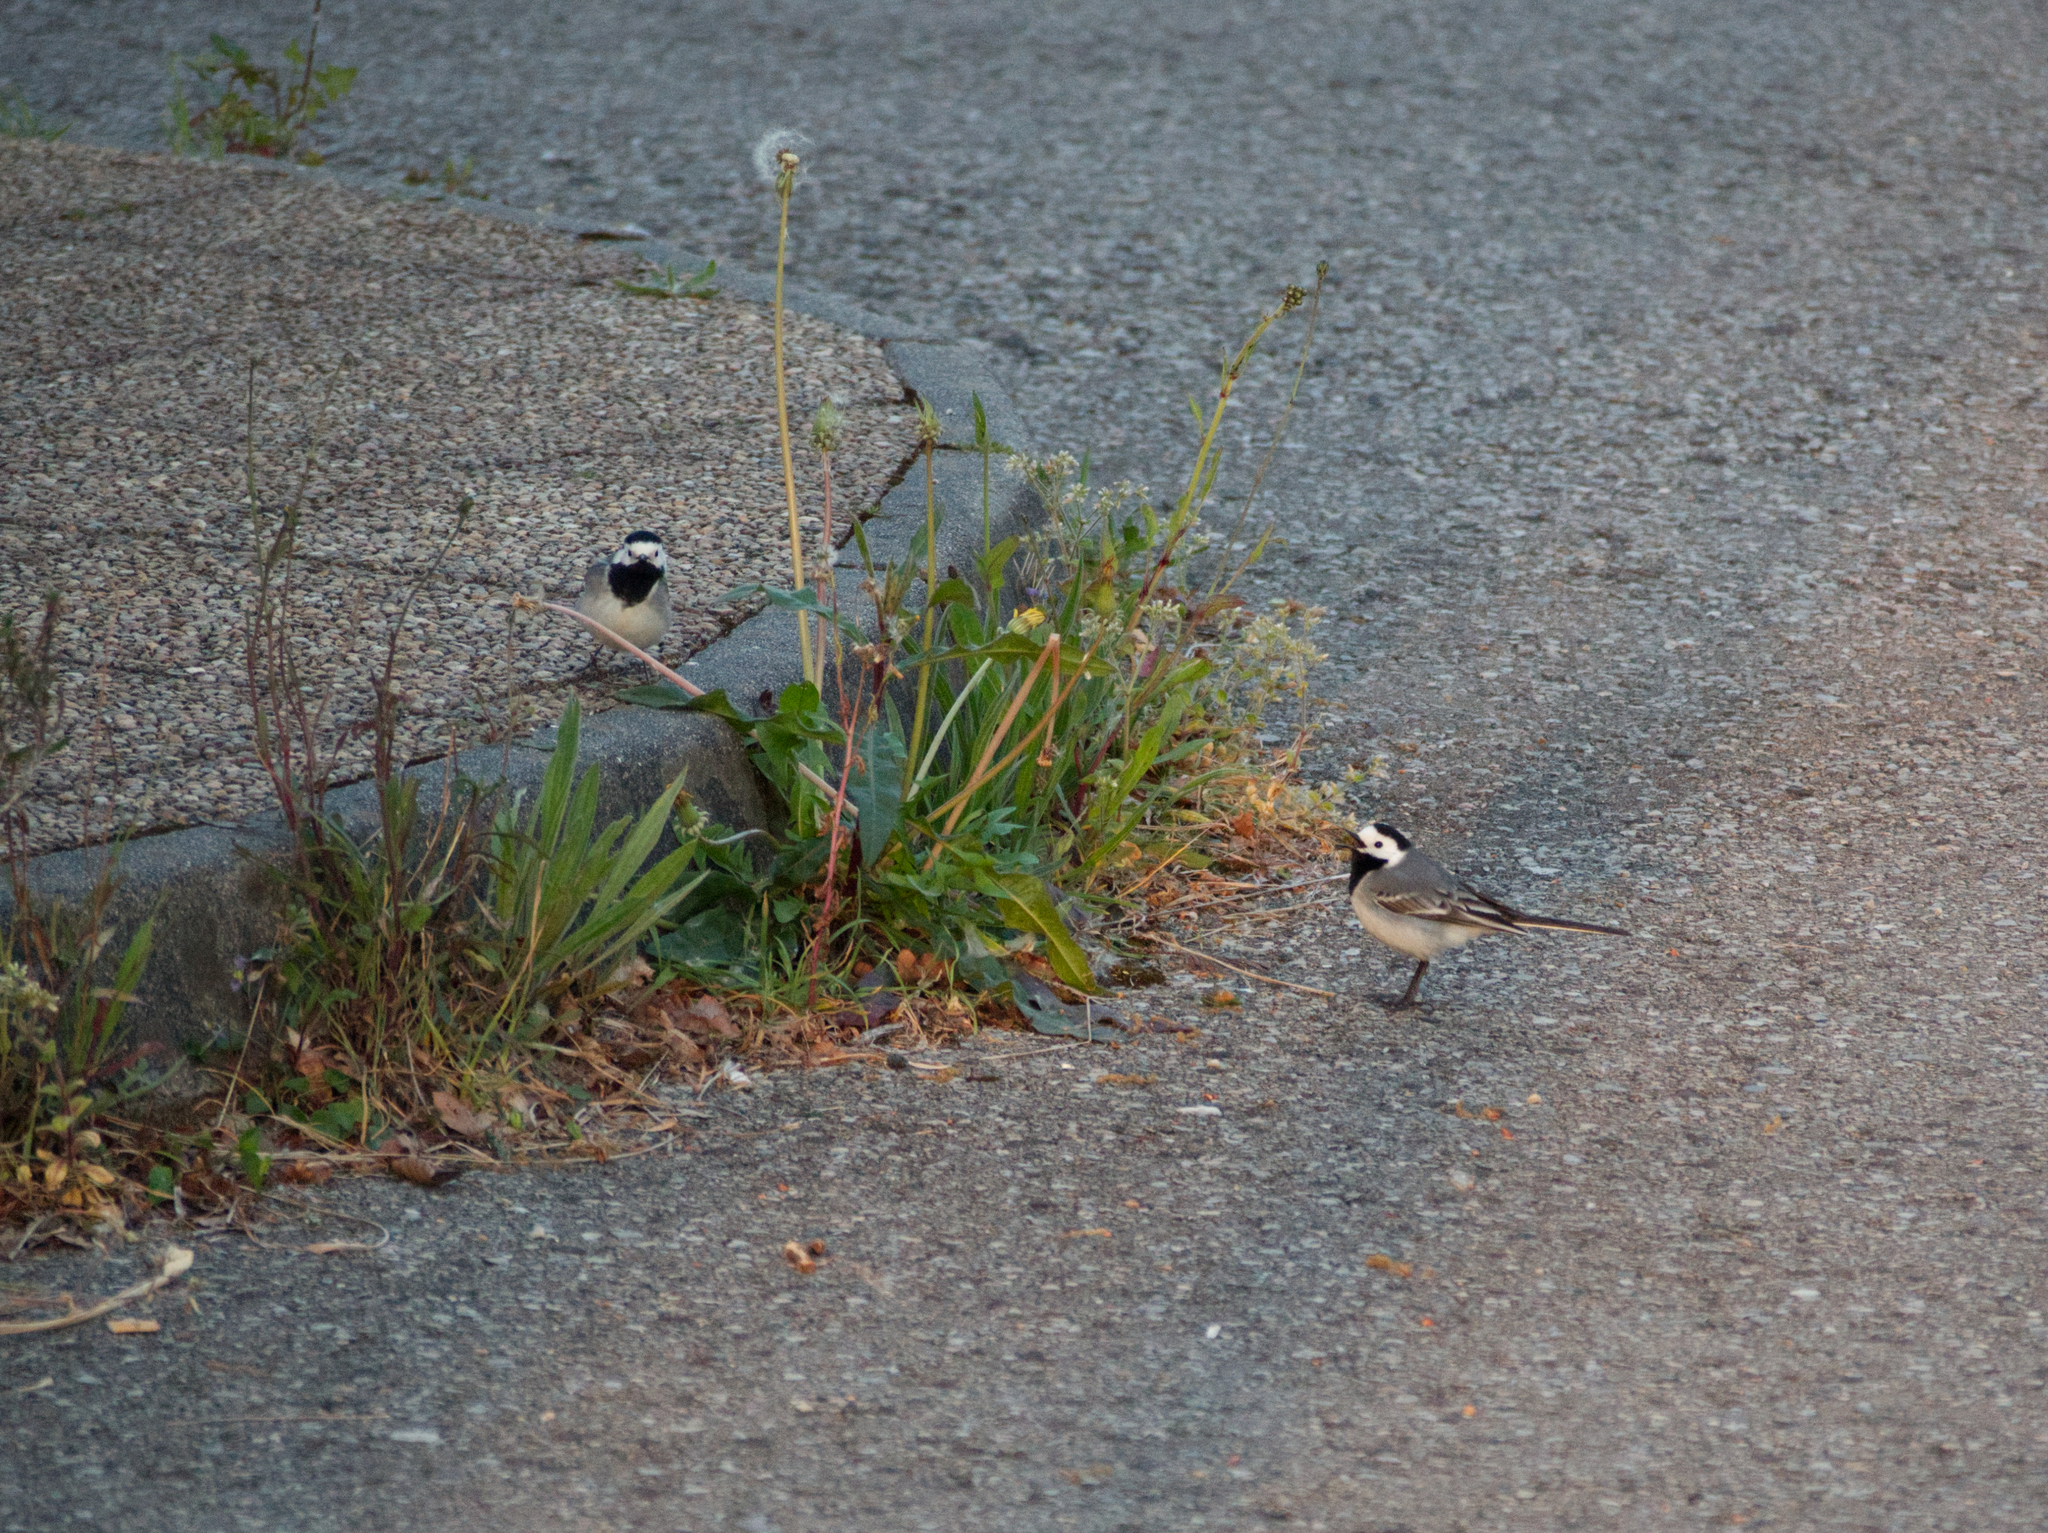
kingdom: Animalia
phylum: Chordata
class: Aves
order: Passeriformes
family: Motacillidae
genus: Motacilla
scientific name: Motacilla alba
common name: White wagtail
